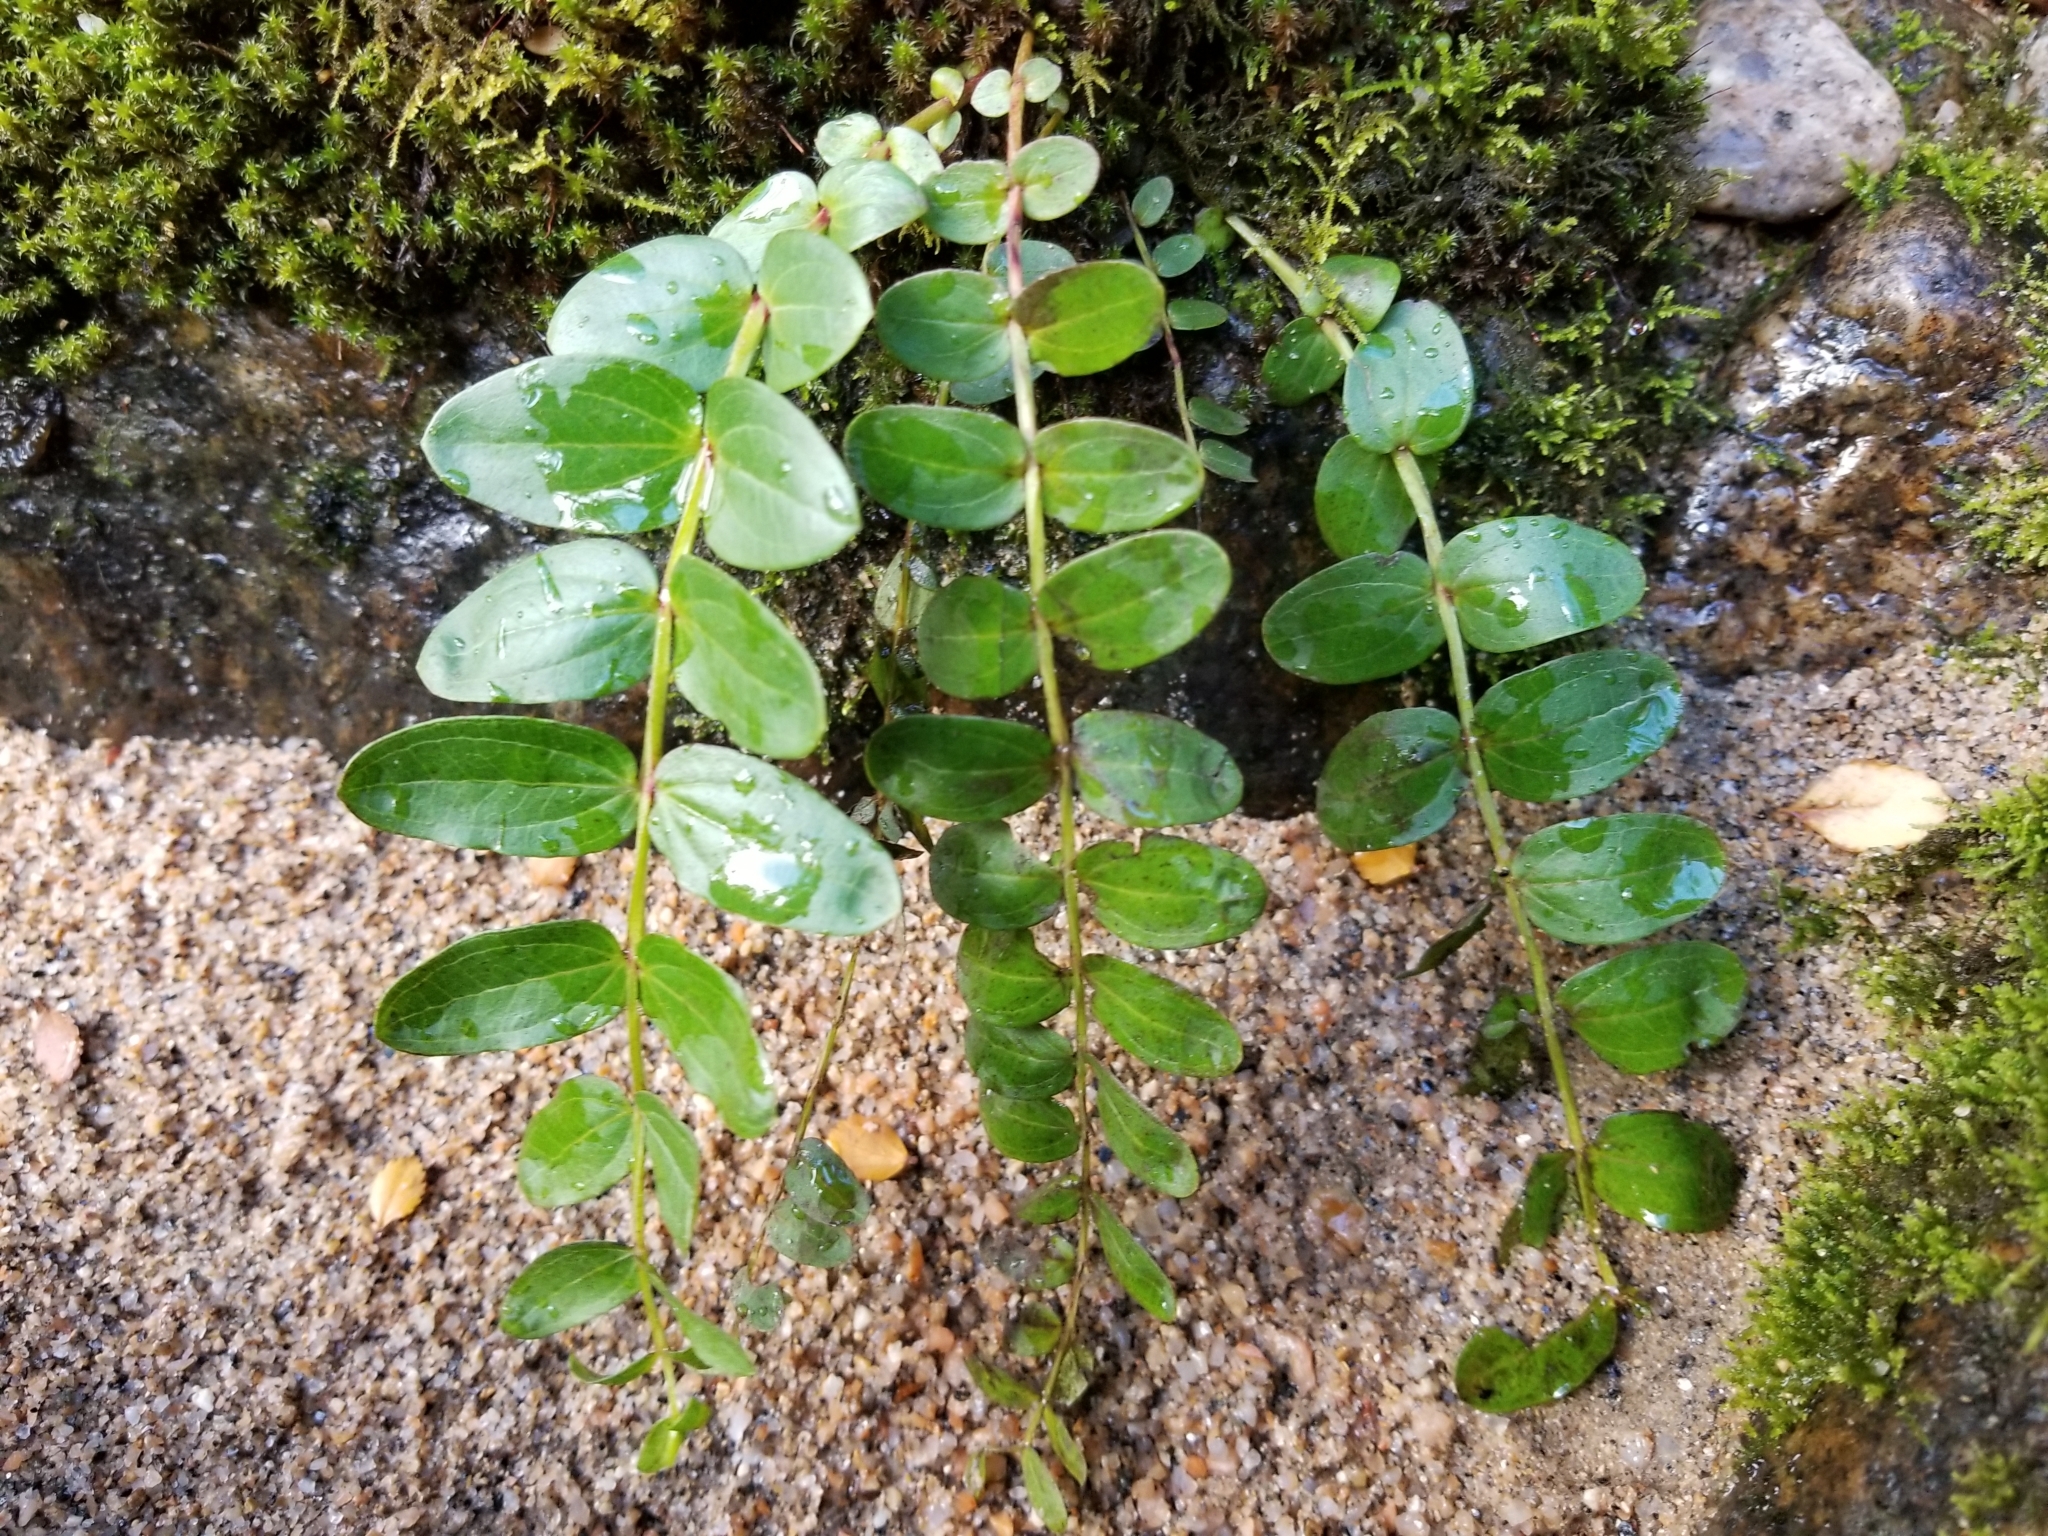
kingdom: Plantae
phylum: Tracheophyta
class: Magnoliopsida
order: Cucurbitales
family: Coriariaceae
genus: Coriaria
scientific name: Coriaria arborea
